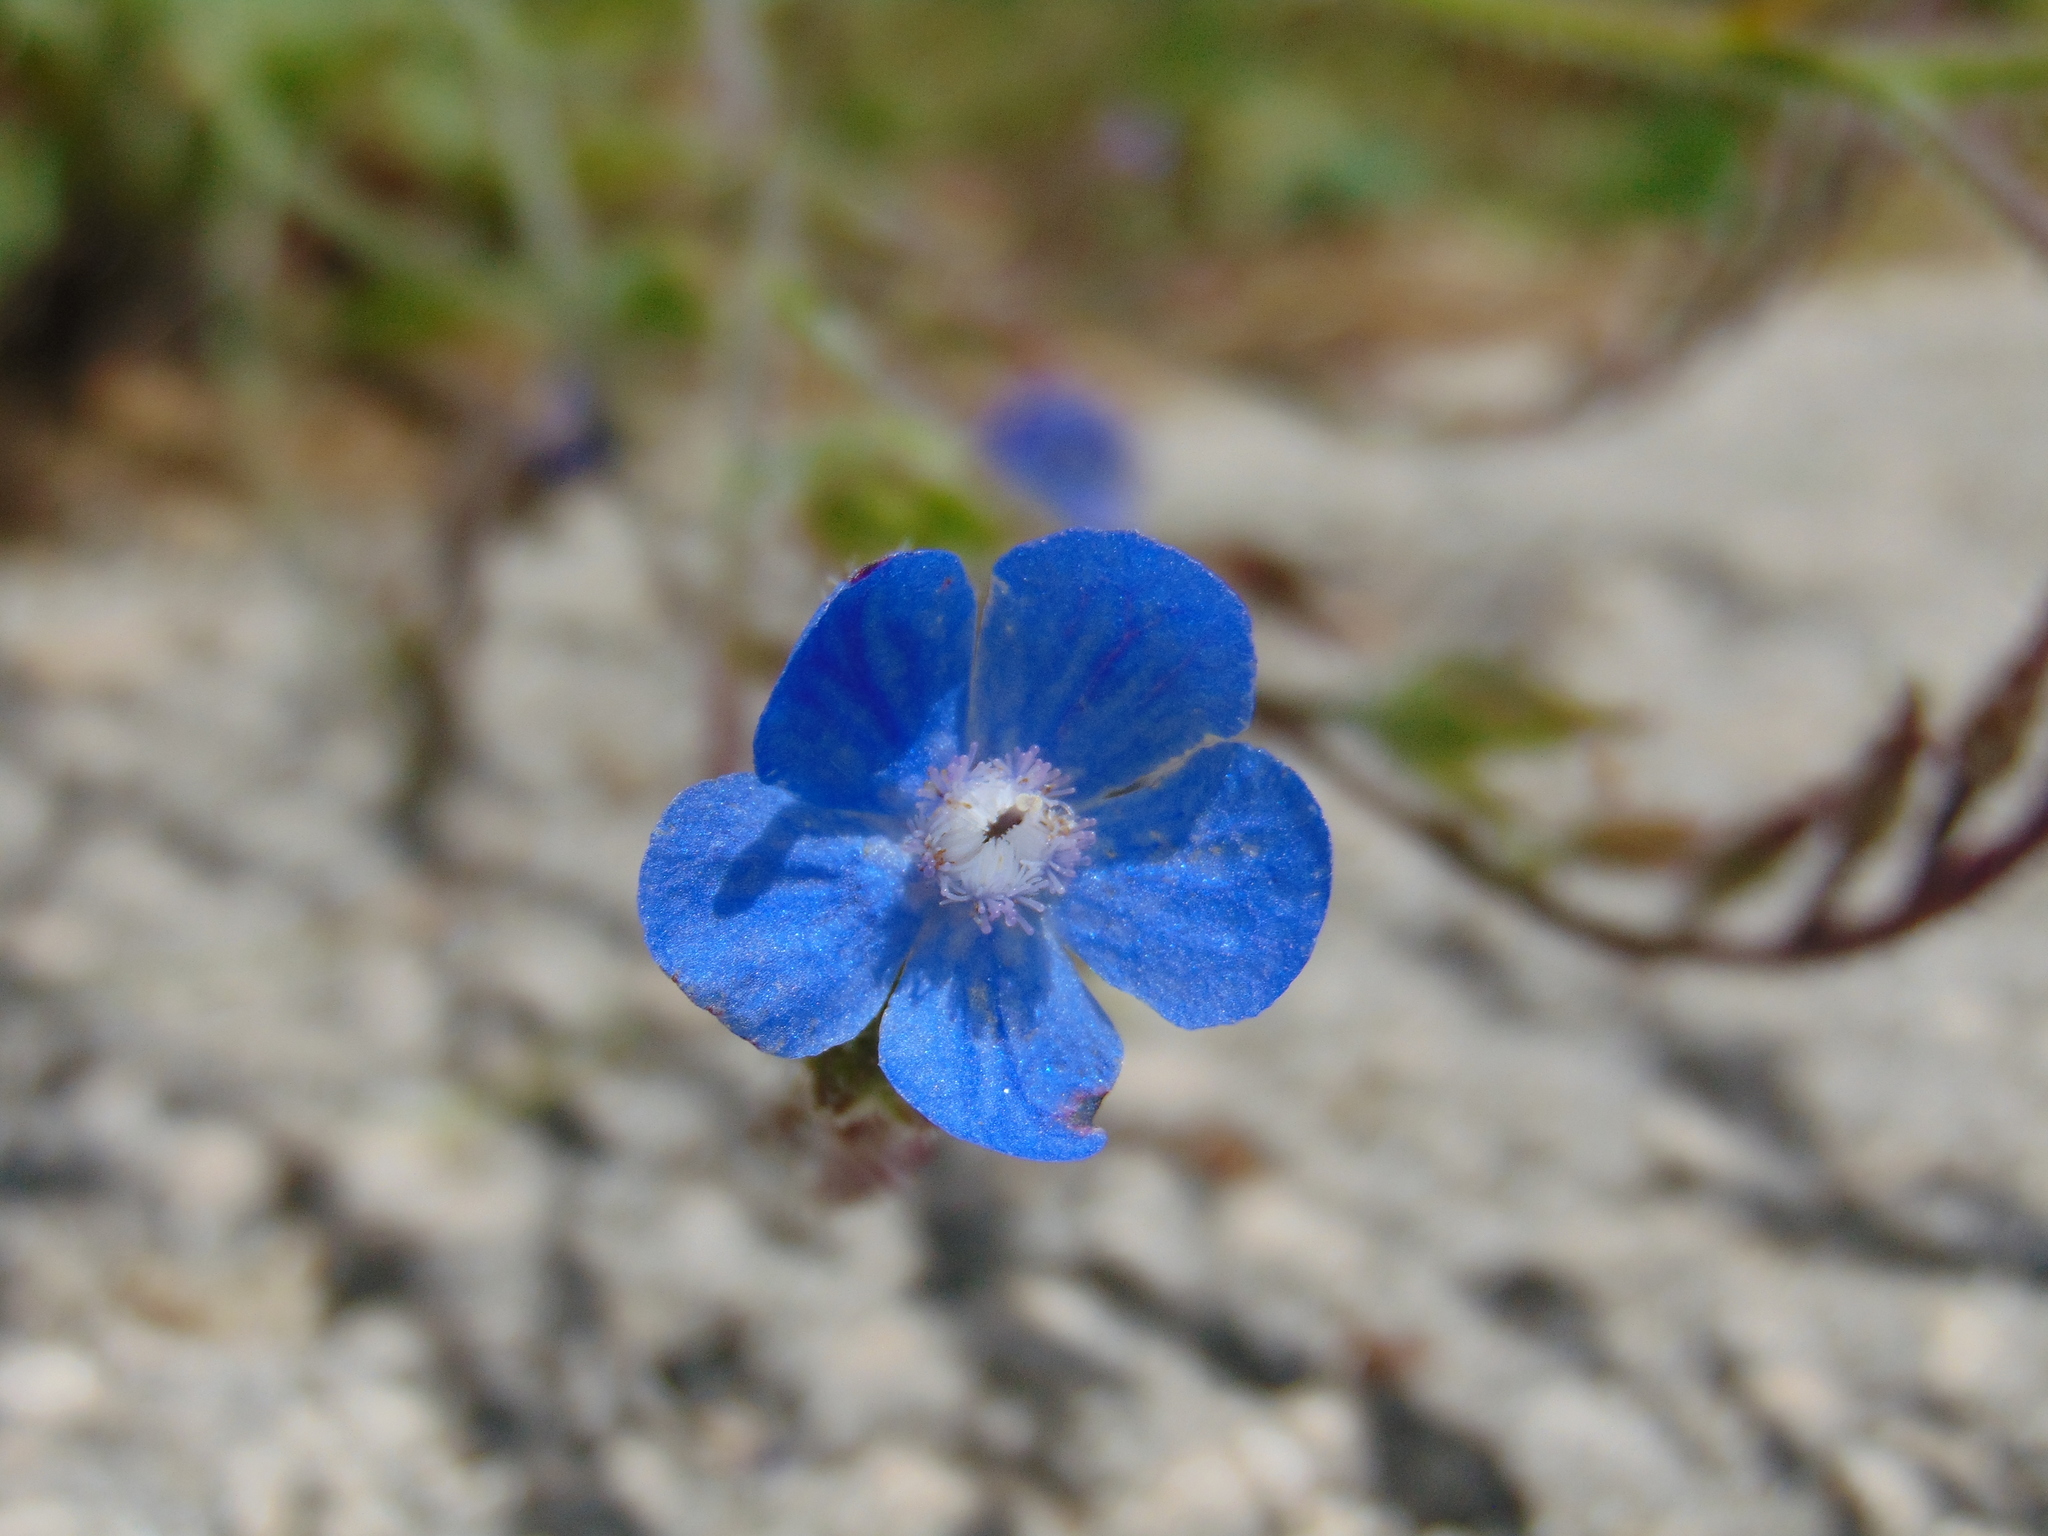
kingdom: Plantae
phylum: Tracheophyta
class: Magnoliopsida
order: Boraginales
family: Boraginaceae
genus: Anchusa
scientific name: Anchusa azurea
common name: Garden anchusa
